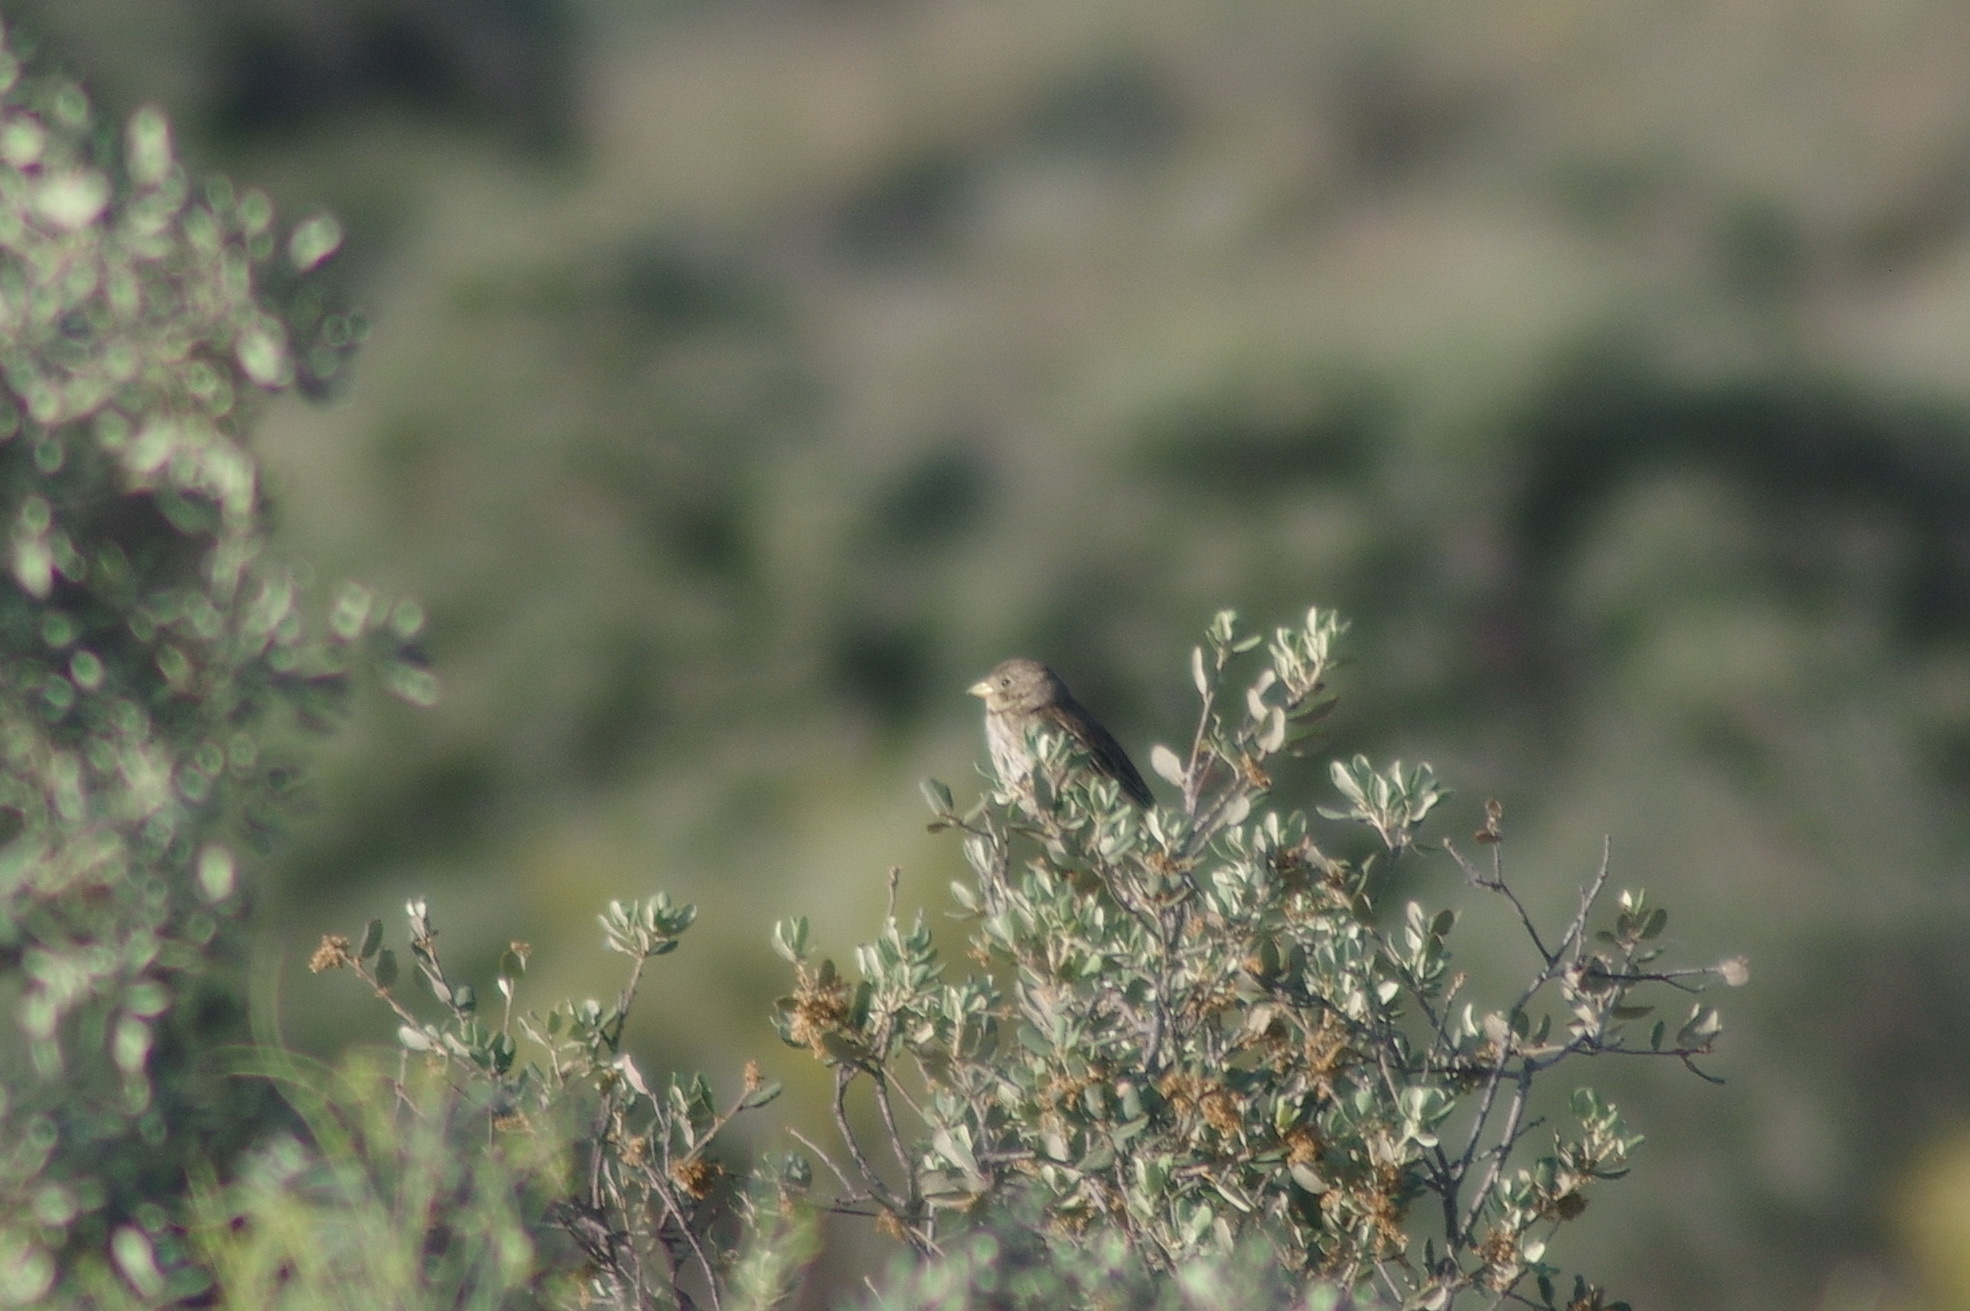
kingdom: Animalia
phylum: Chordata
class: Aves
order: Passeriformes
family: Emberizidae
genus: Emberiza
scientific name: Emberiza calandra
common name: Corn bunting
